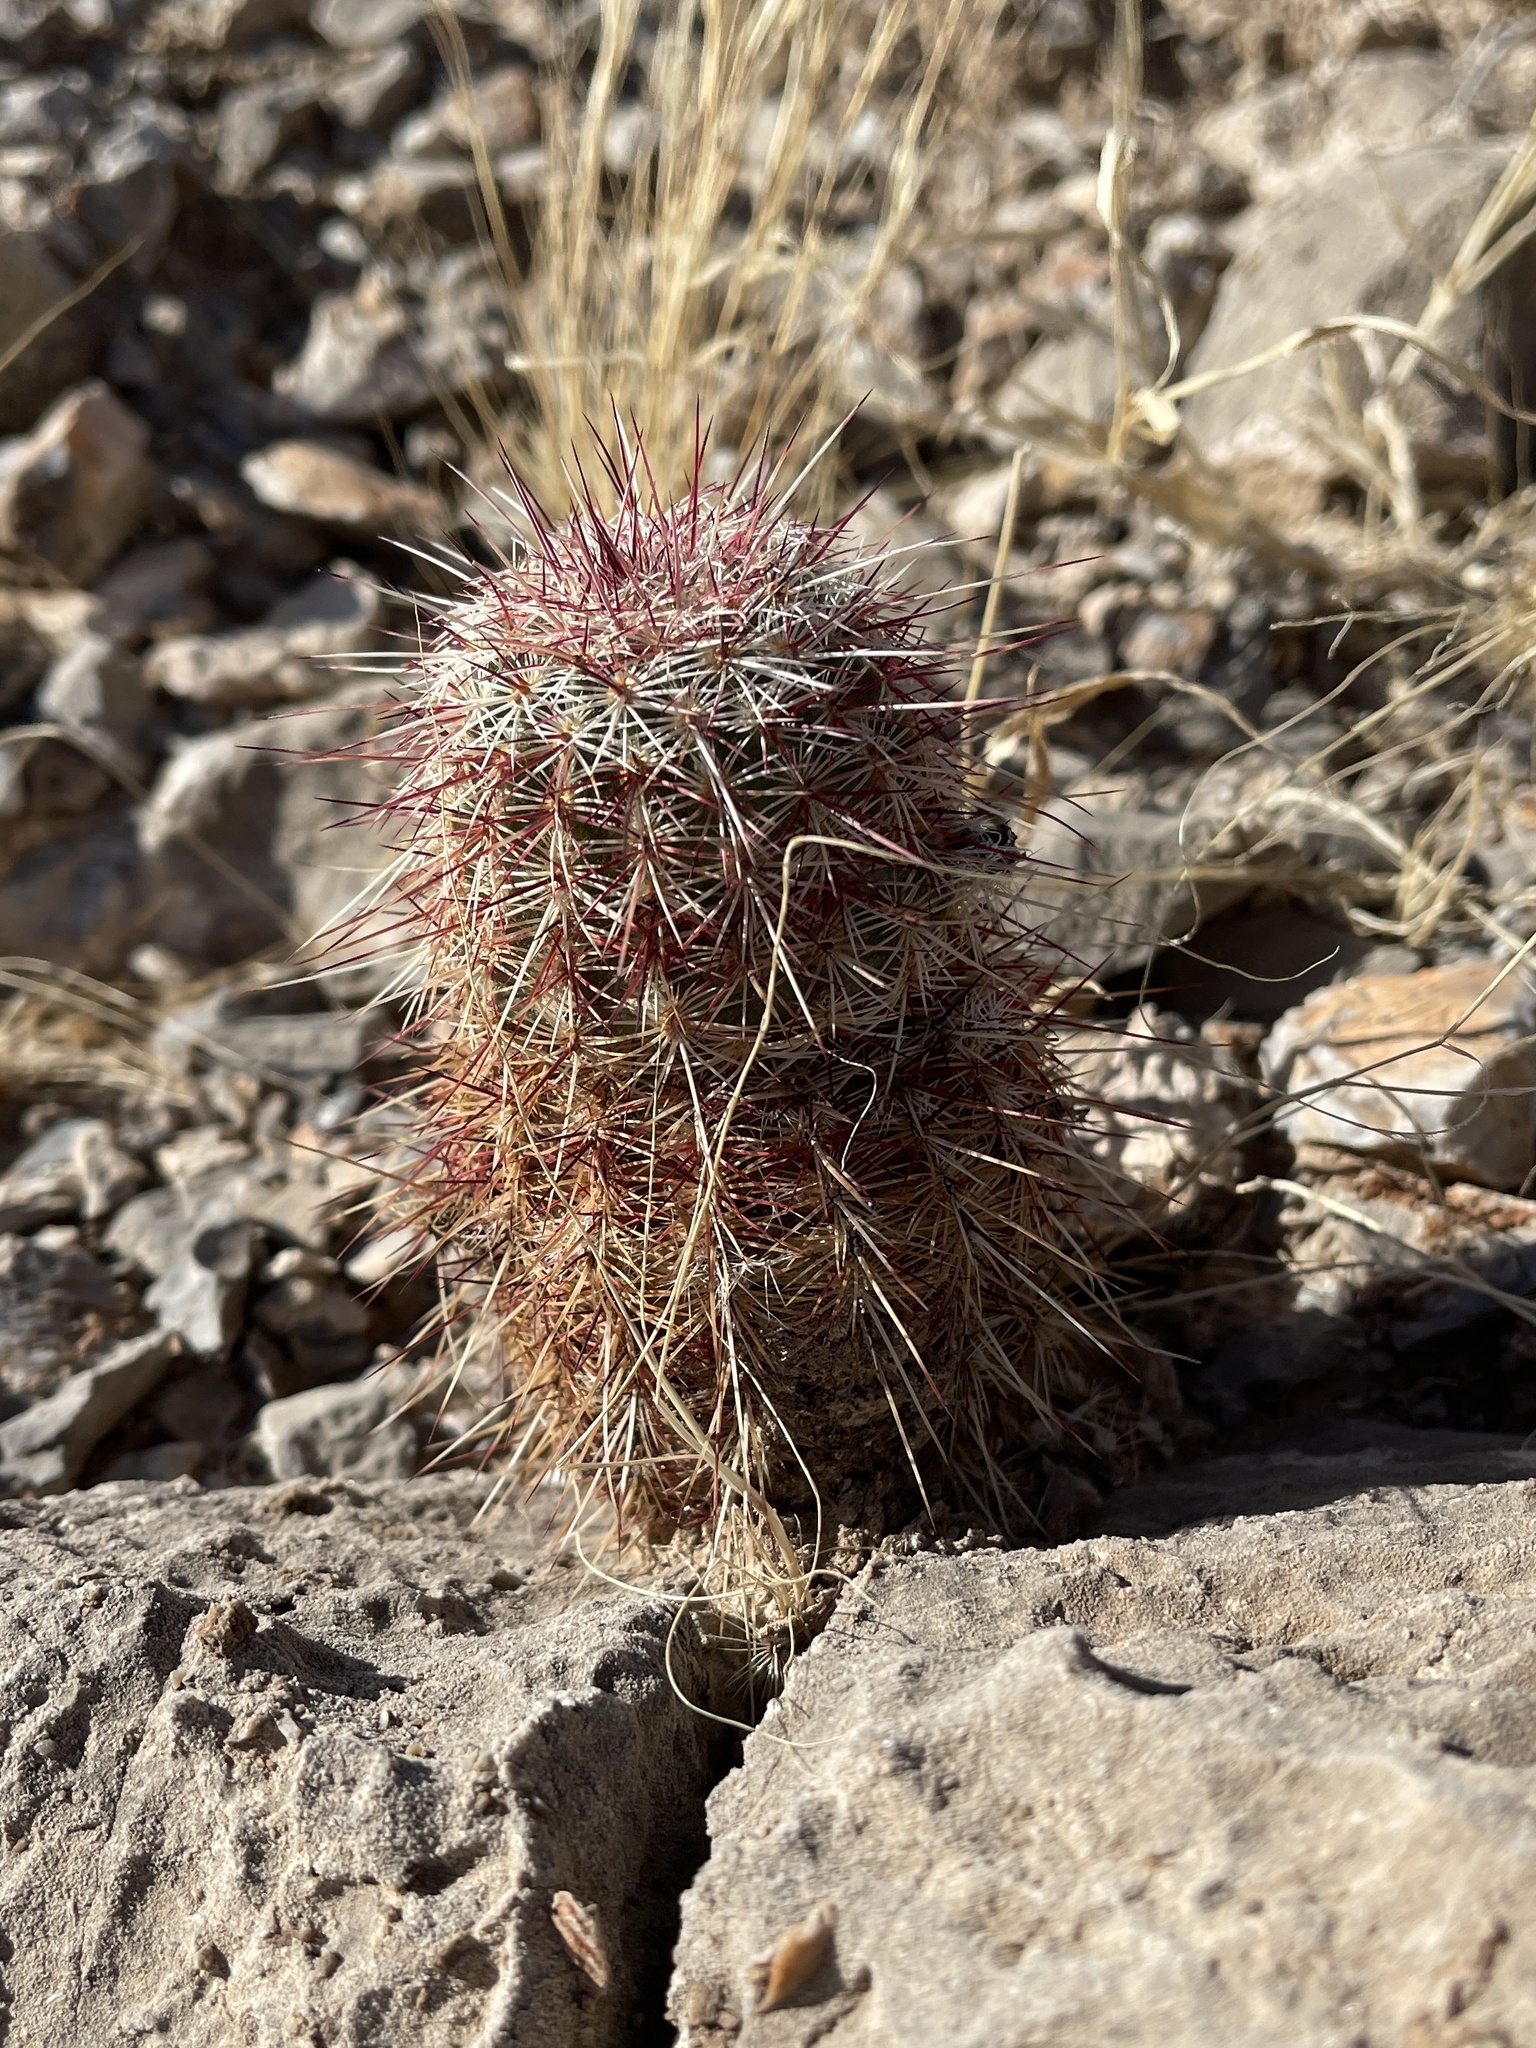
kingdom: Plantae
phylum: Tracheophyta
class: Magnoliopsida
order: Caryophyllales
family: Cactaceae
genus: Echinocereus
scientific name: Echinocereus viridiflorus
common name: Nylon hedgehog cactus
